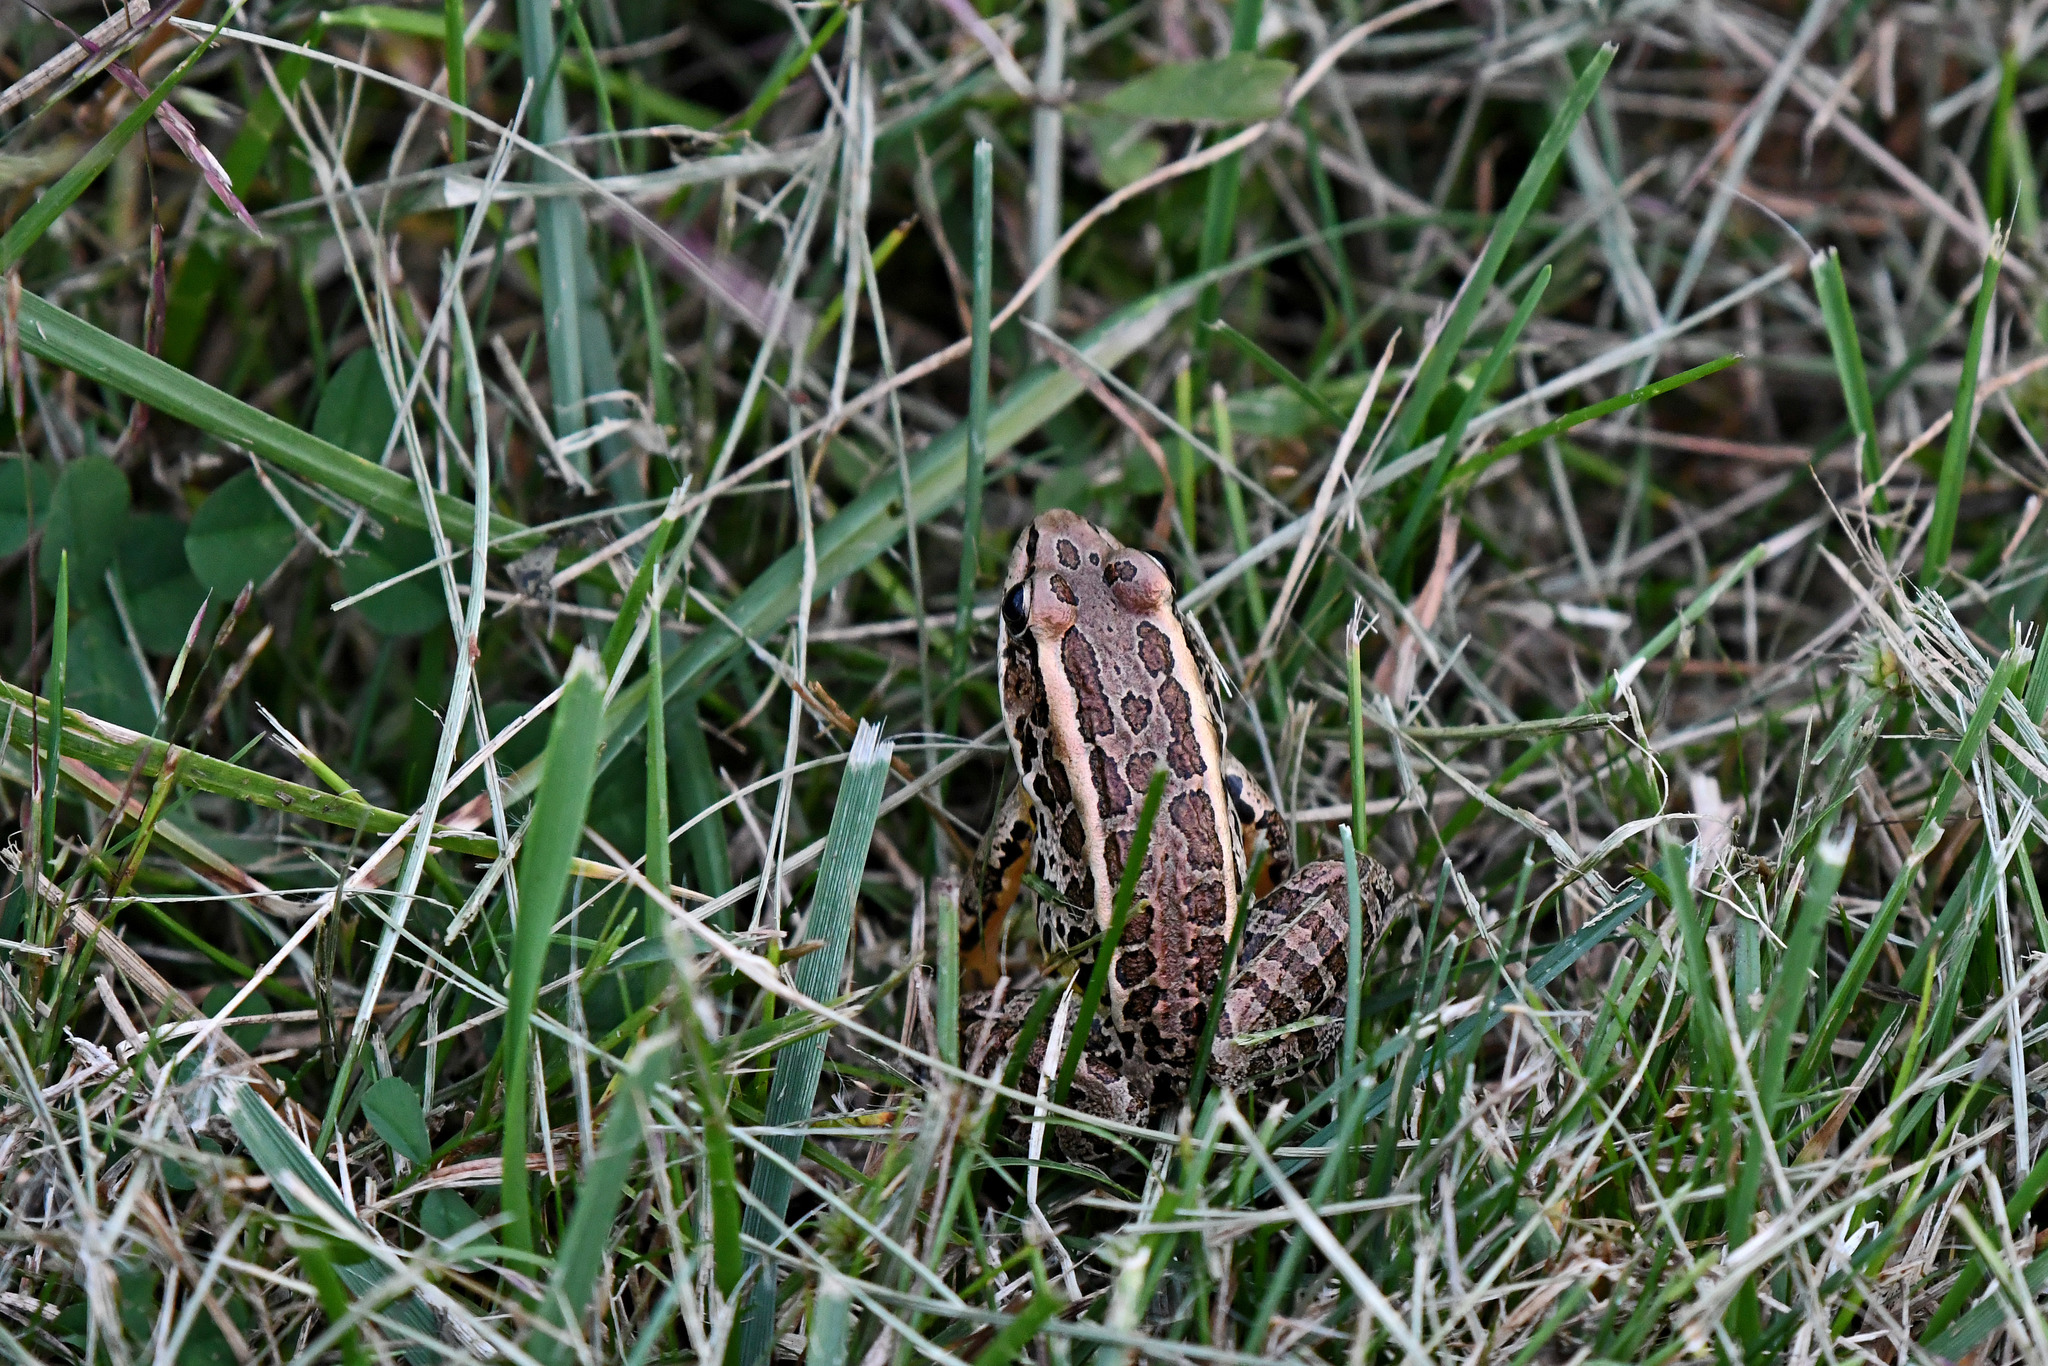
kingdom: Animalia
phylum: Chordata
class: Amphibia
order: Anura
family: Ranidae
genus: Lithobates
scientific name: Lithobates palustris
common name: Pickerel frog
